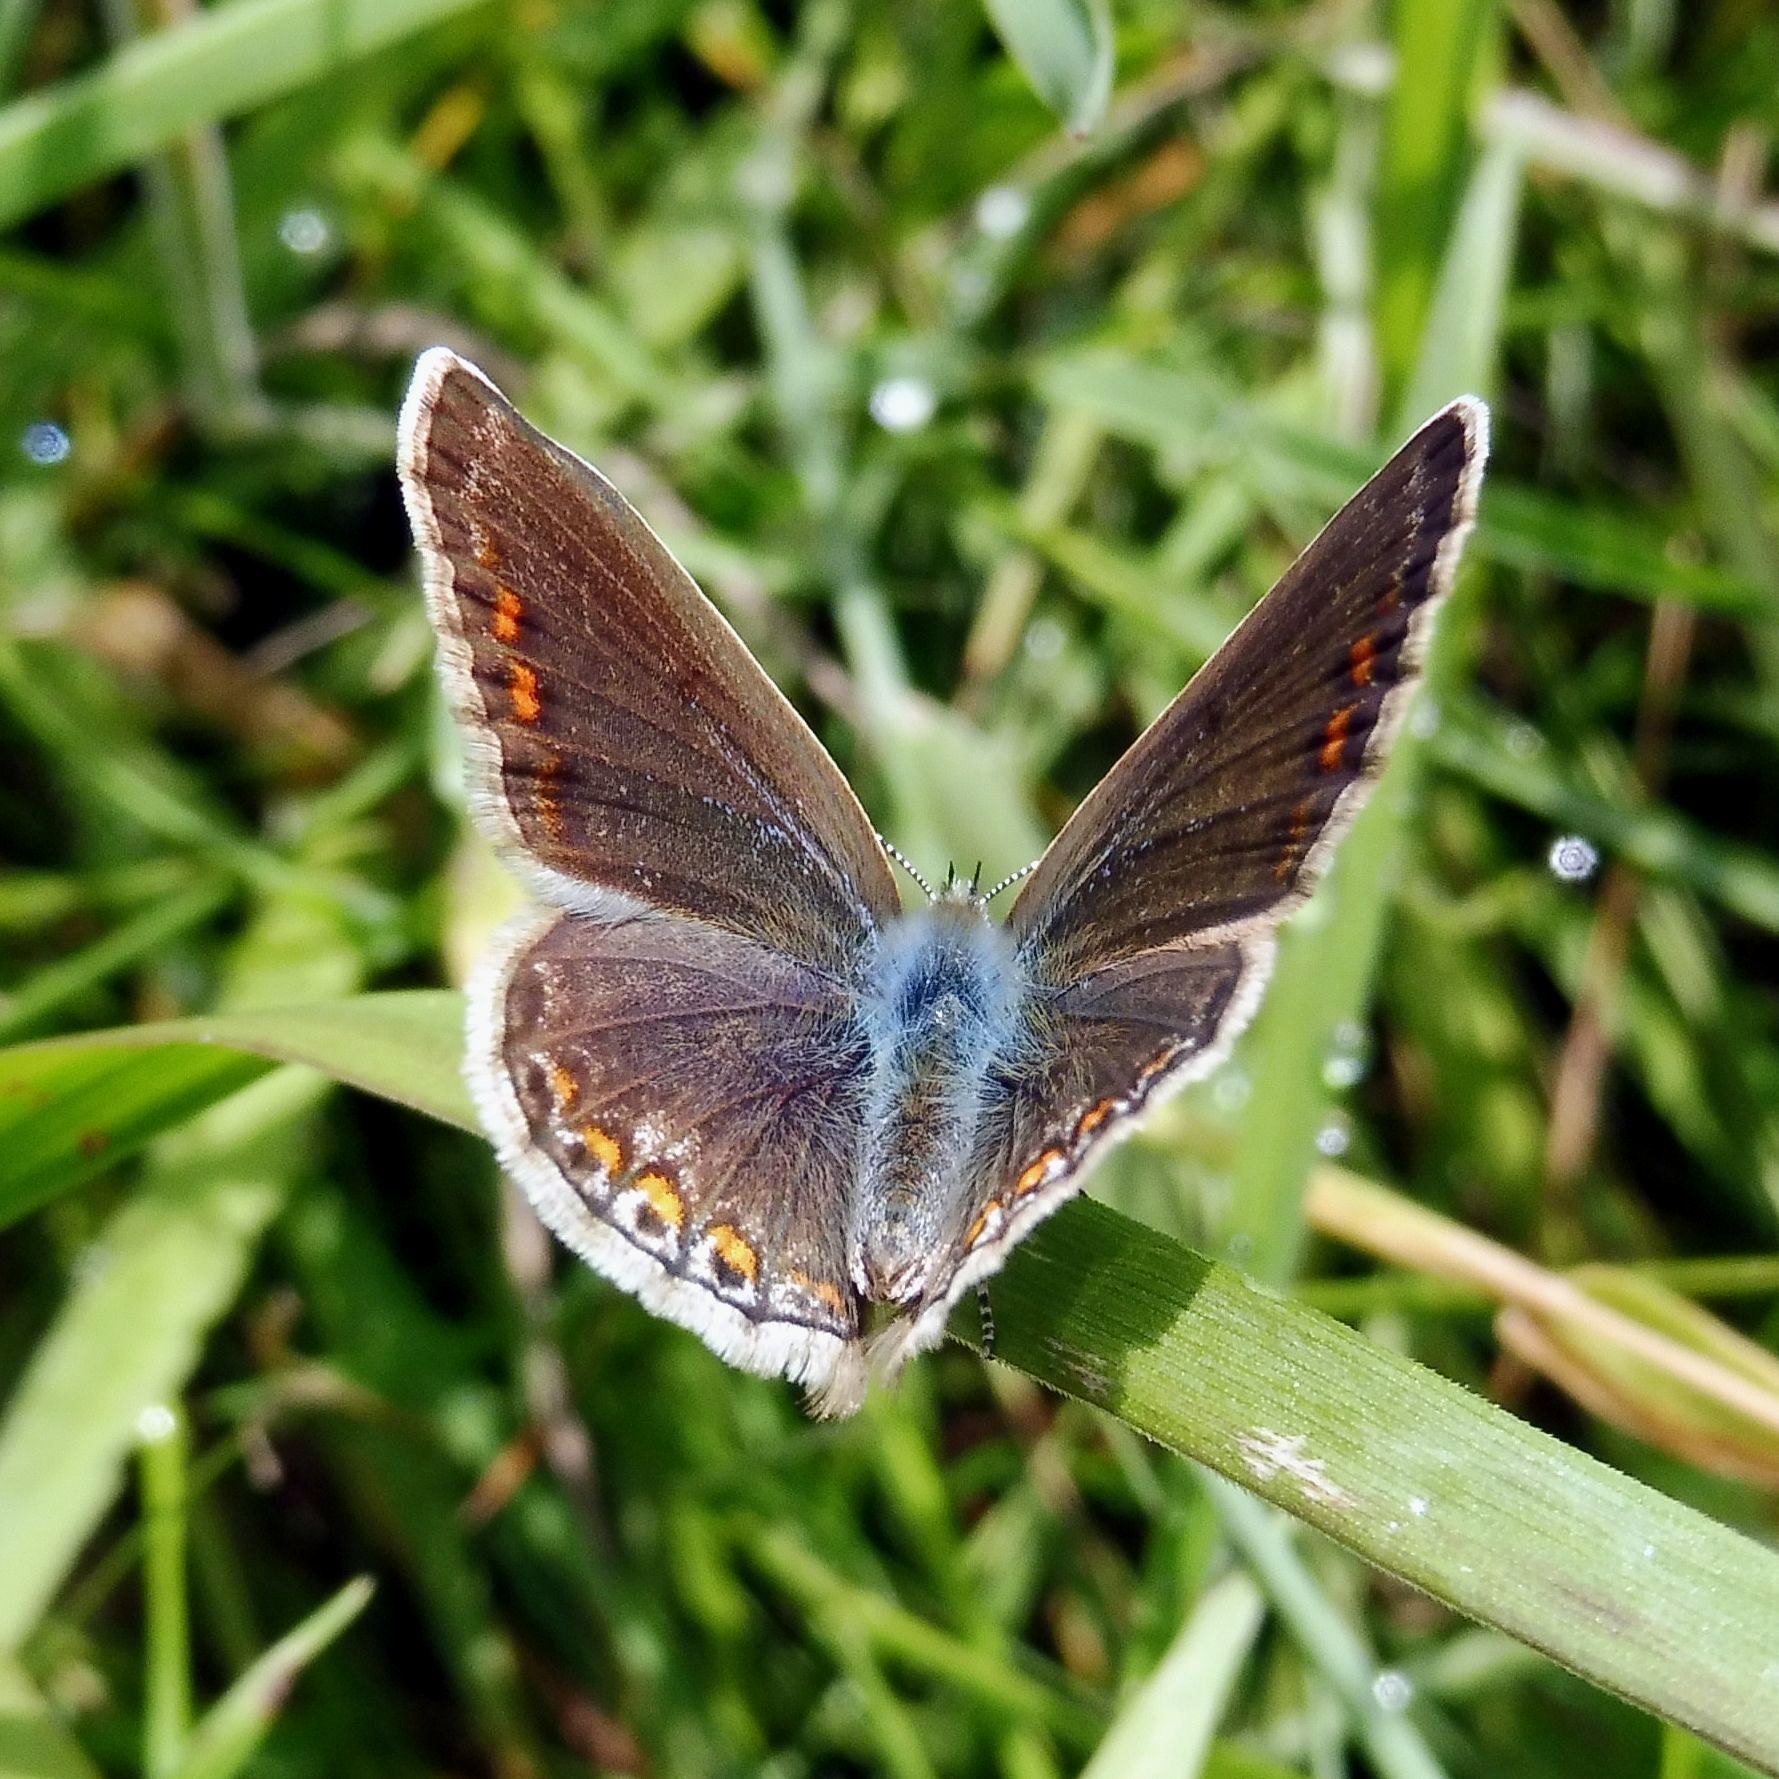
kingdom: Animalia
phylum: Arthropoda
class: Insecta
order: Lepidoptera
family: Lycaenidae
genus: Polyommatus
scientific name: Polyommatus icarus
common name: Common blue
